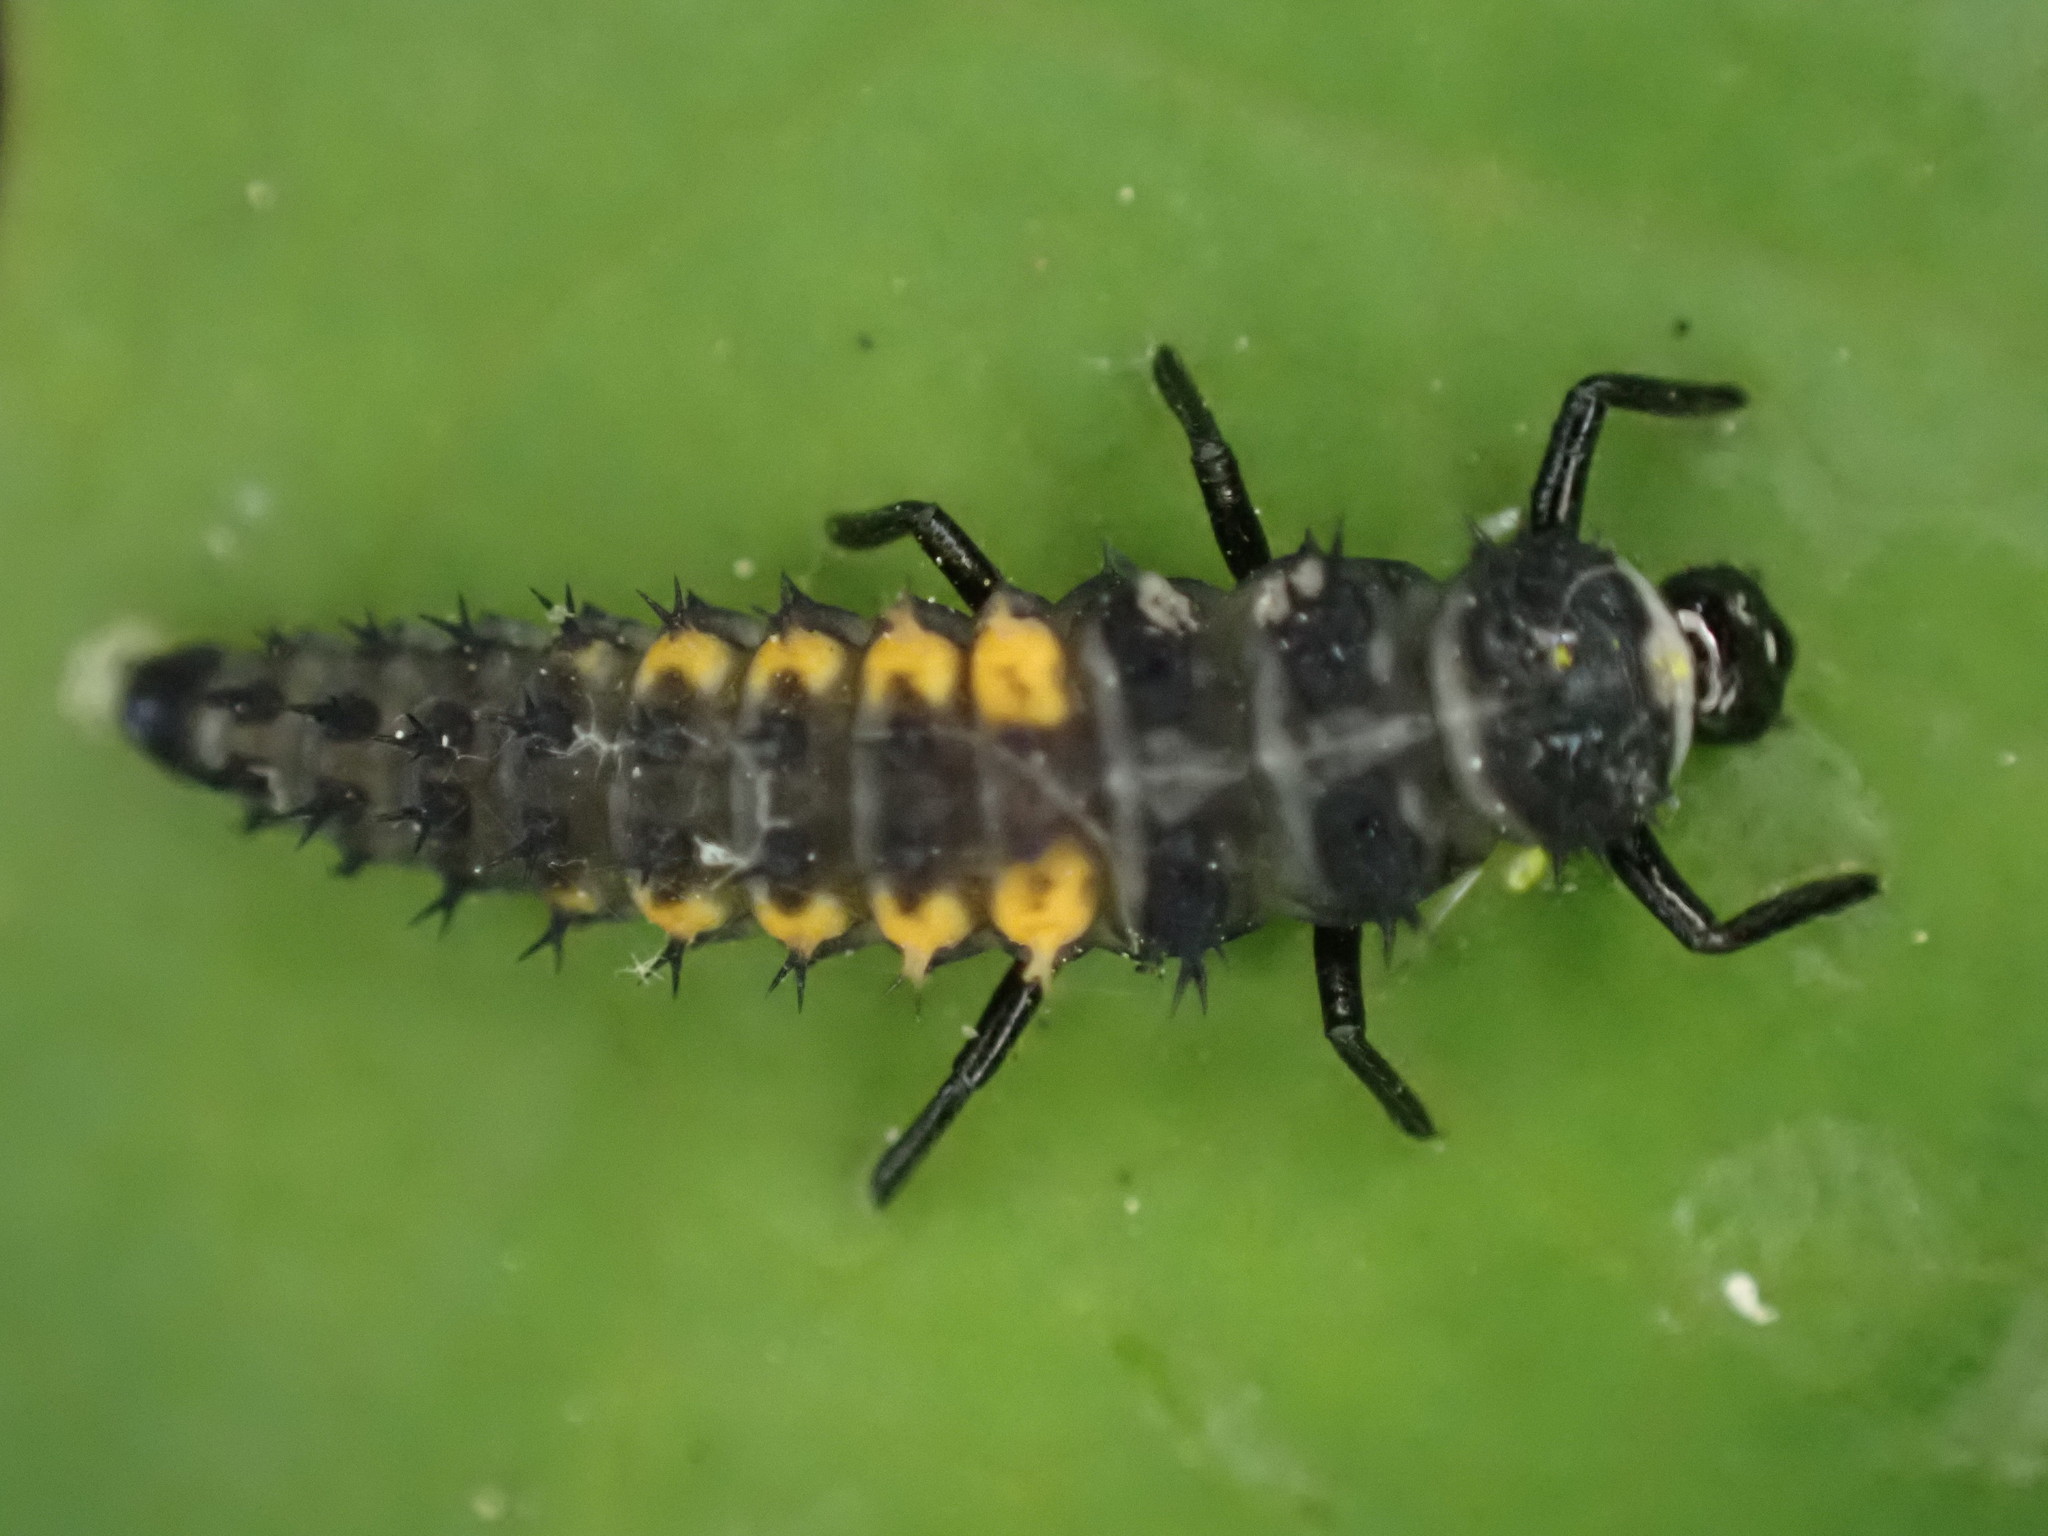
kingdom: Animalia
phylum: Arthropoda
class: Insecta
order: Coleoptera
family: Coccinellidae
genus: Harmonia
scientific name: Harmonia axyridis
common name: Harlequin ladybird
